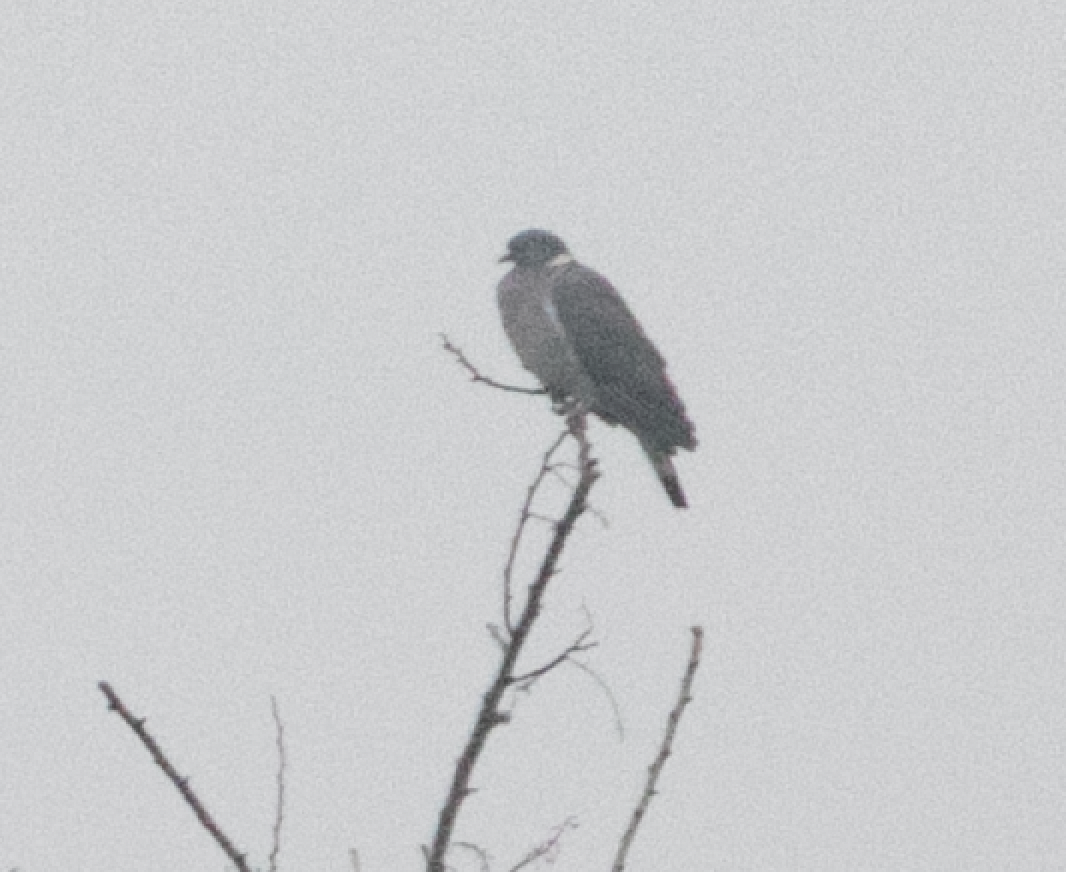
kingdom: Animalia
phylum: Chordata
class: Aves
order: Columbiformes
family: Columbidae
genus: Columba
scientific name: Columba palumbus
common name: Common wood pigeon
